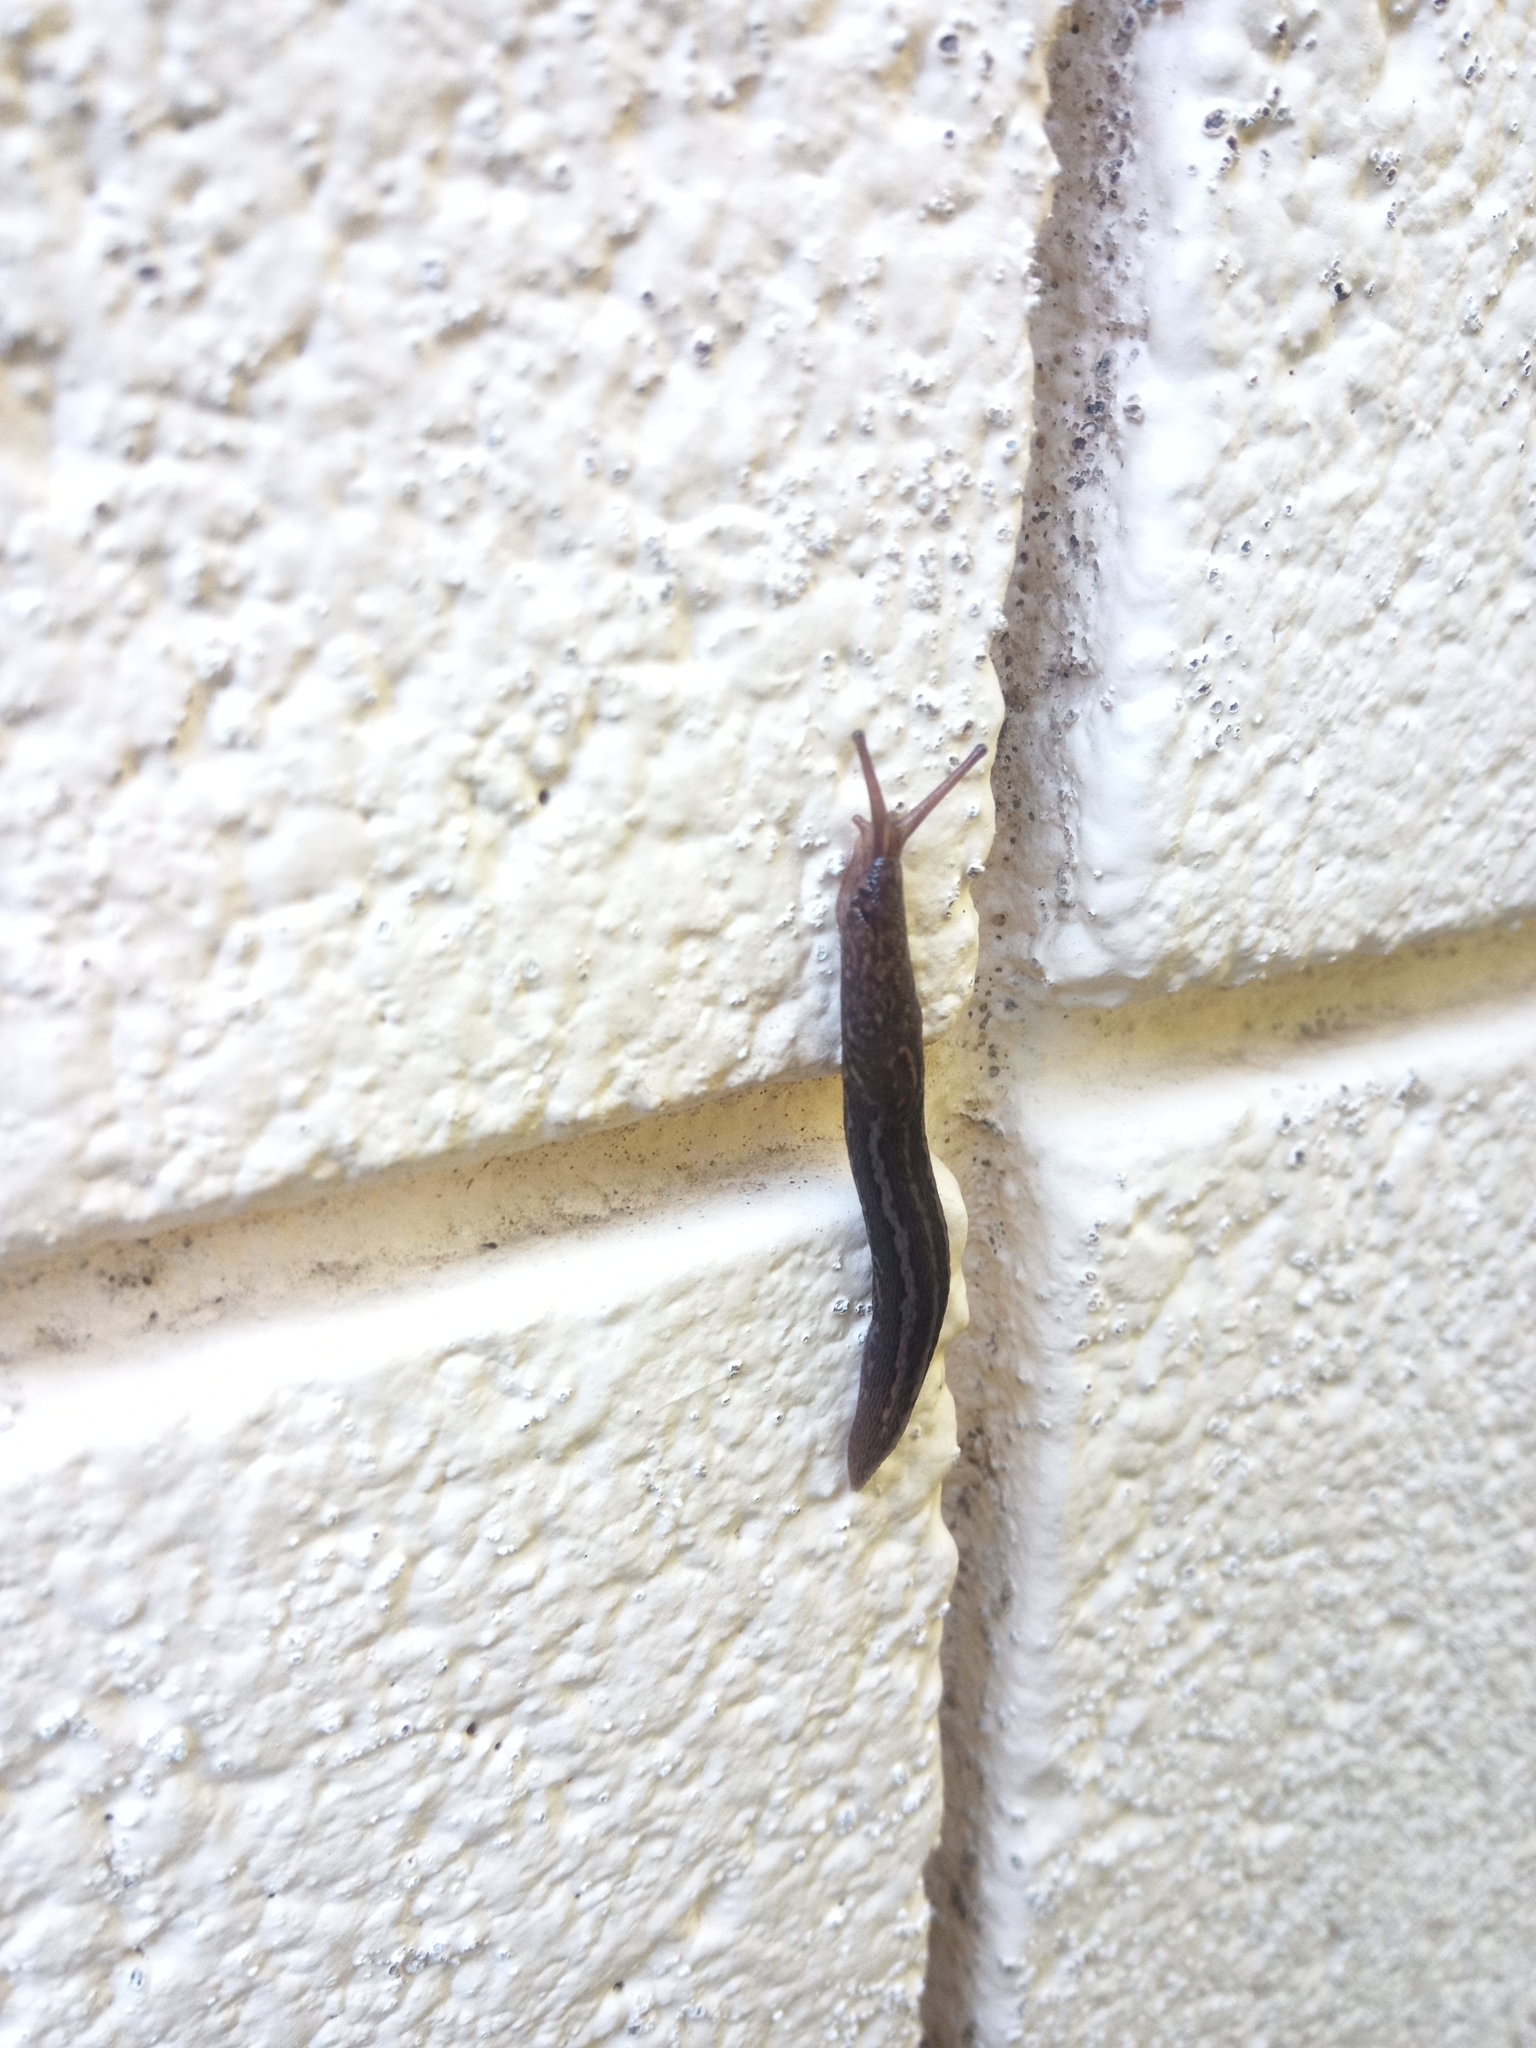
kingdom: Animalia
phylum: Mollusca
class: Gastropoda
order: Stylommatophora
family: Limacidae
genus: Limax
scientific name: Limax maximus
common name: Great grey slug
